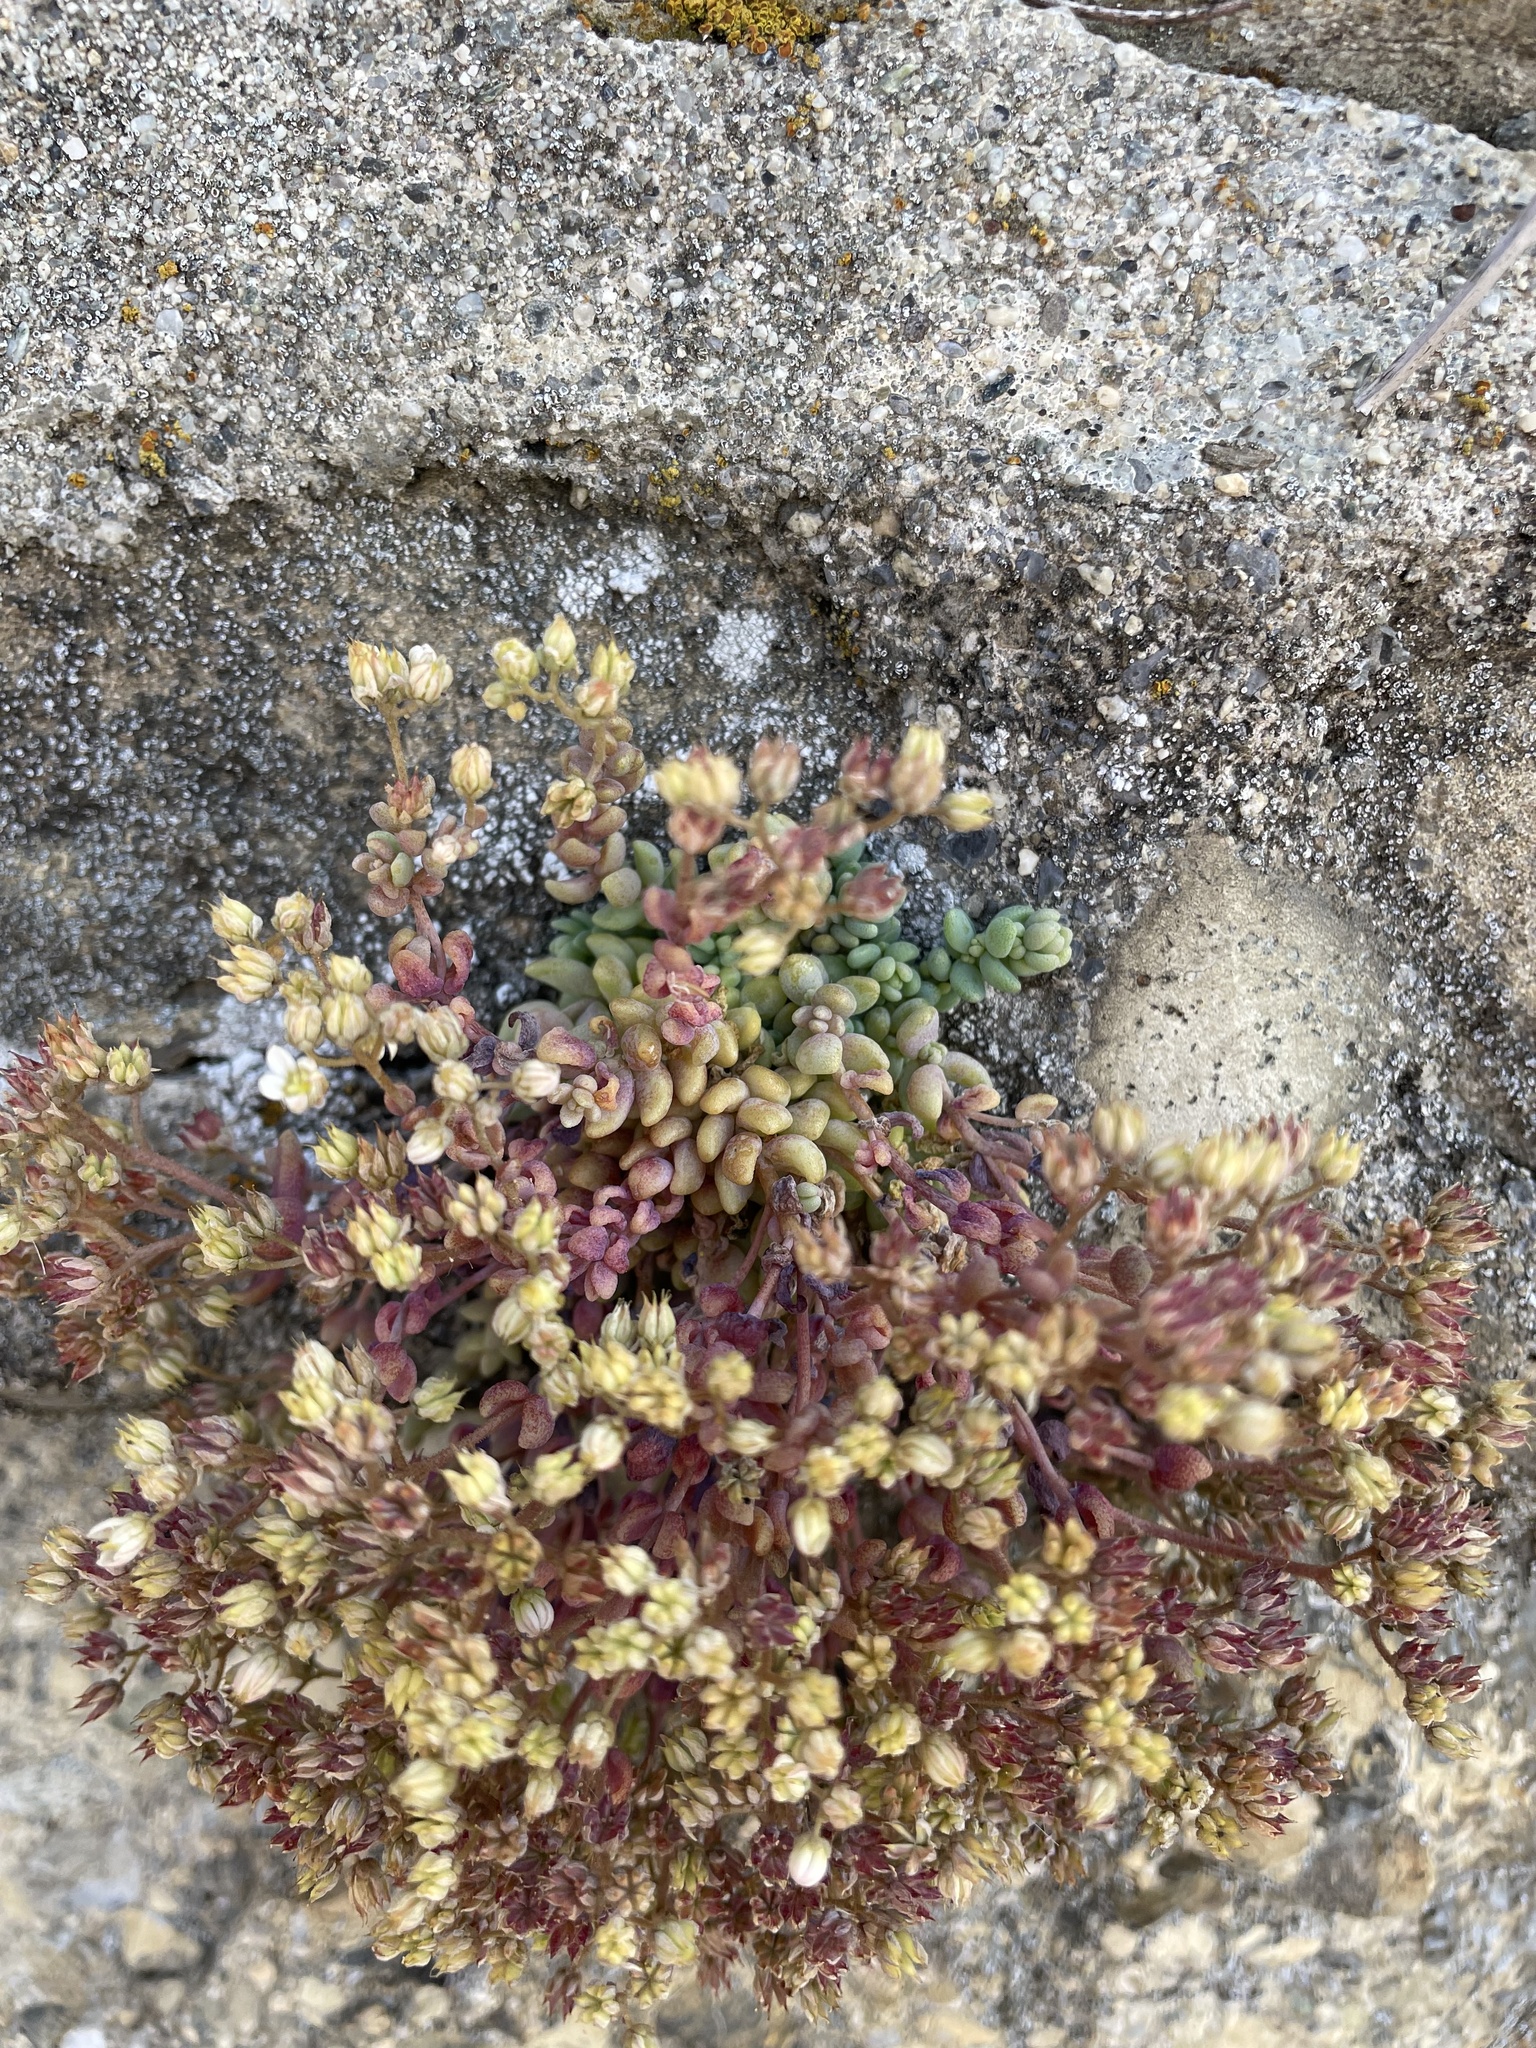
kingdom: Plantae
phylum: Tracheophyta
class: Magnoliopsida
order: Saxifragales
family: Crassulaceae
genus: Sedum
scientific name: Sedum dasyphyllum
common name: Thick-leaf stonecrop
